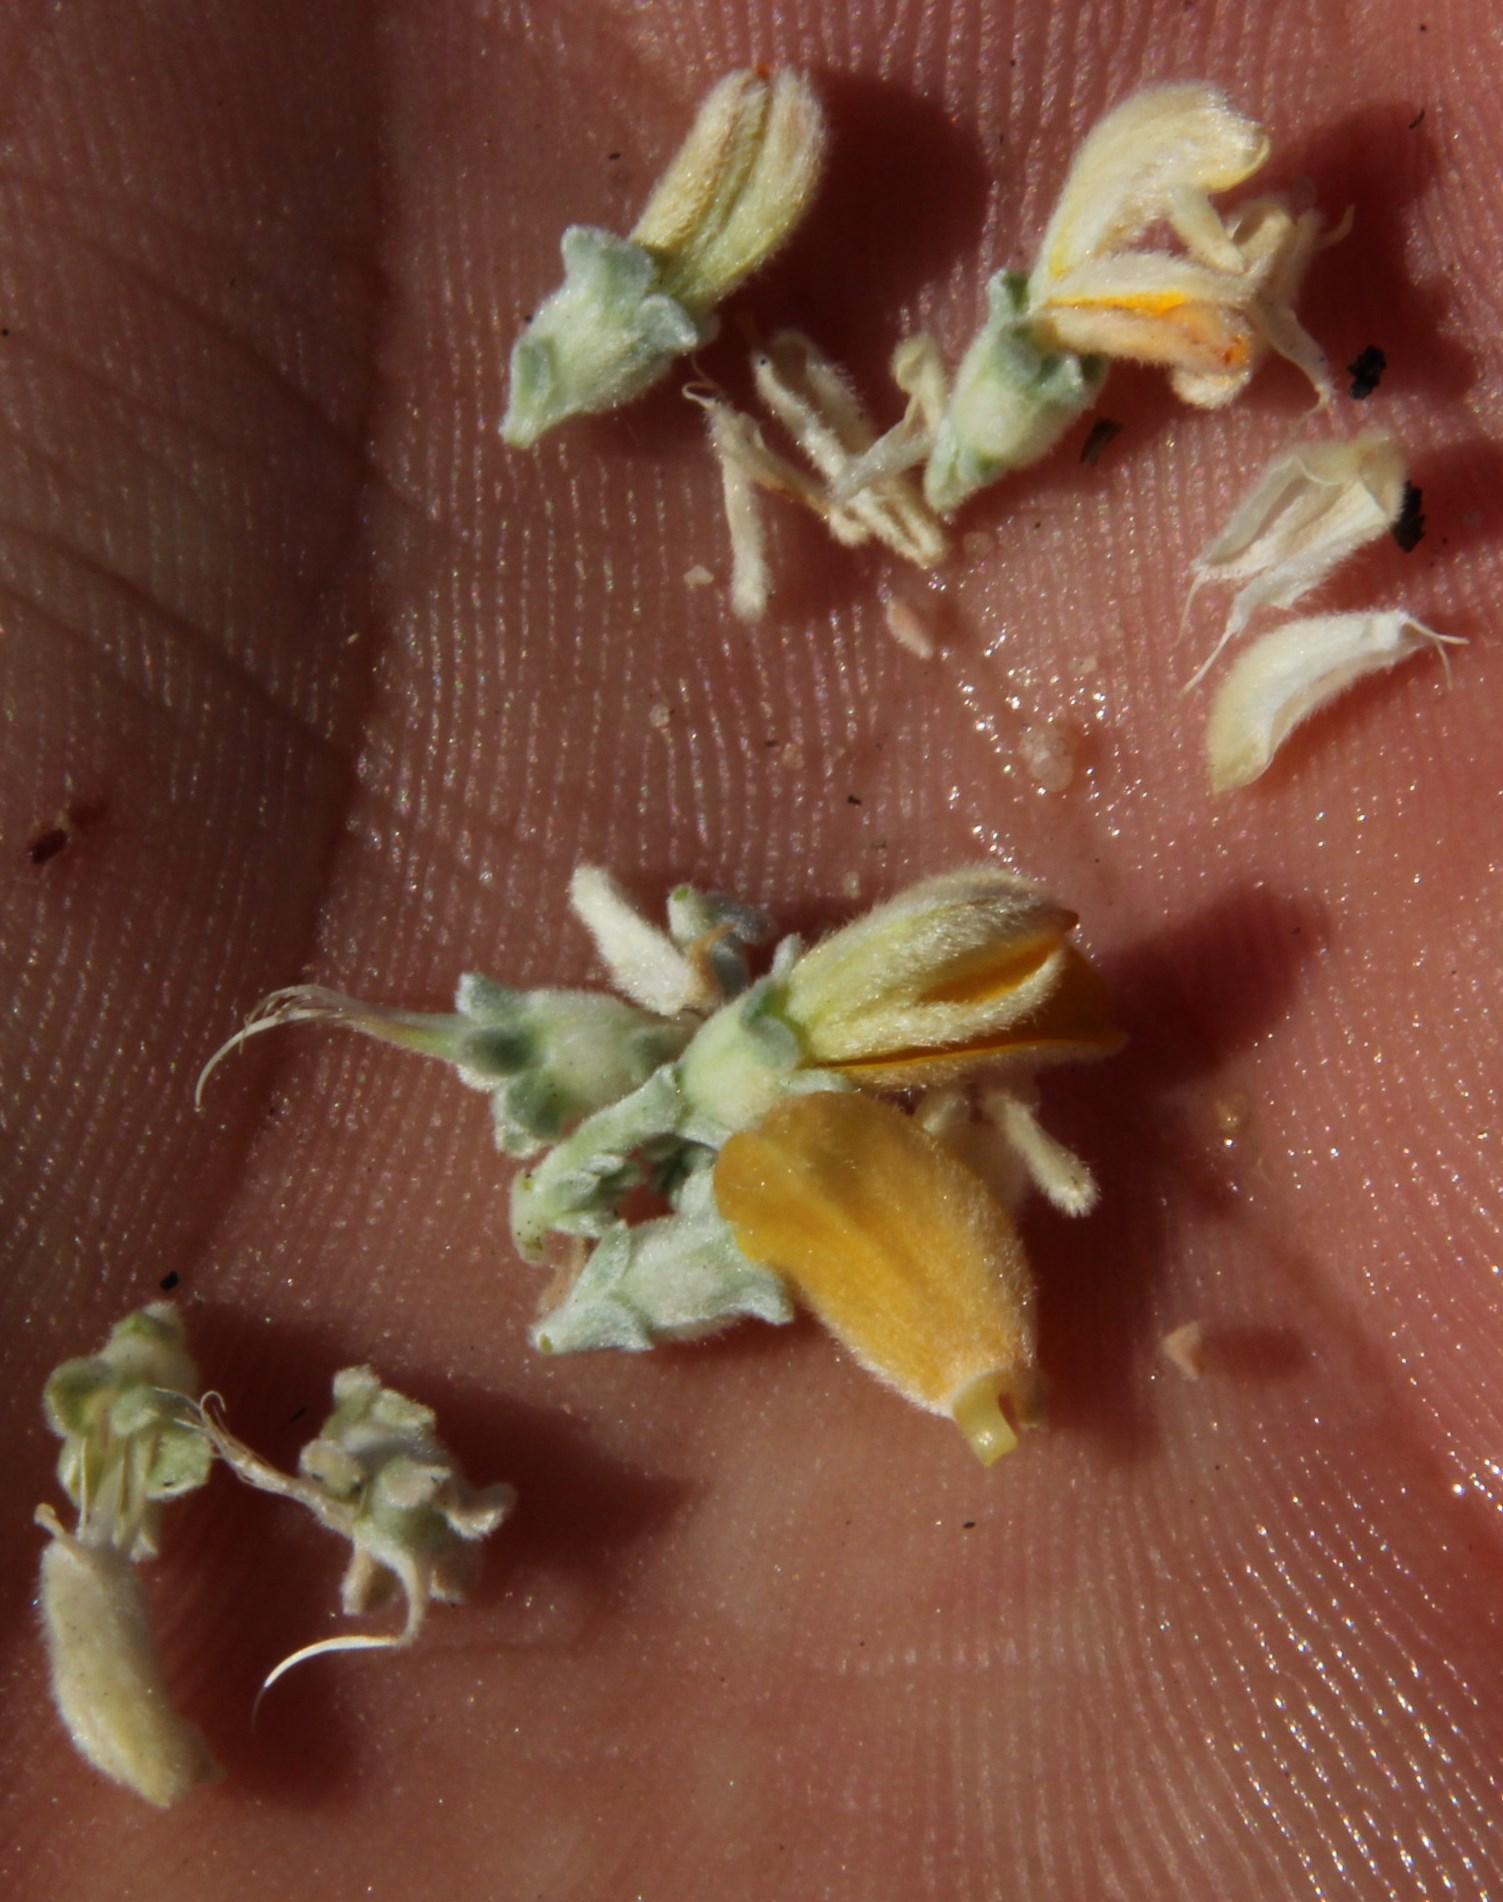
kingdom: Plantae
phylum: Tracheophyta
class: Magnoliopsida
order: Fabales
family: Fabaceae
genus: Aspalathus
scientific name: Aspalathus bodkinii
